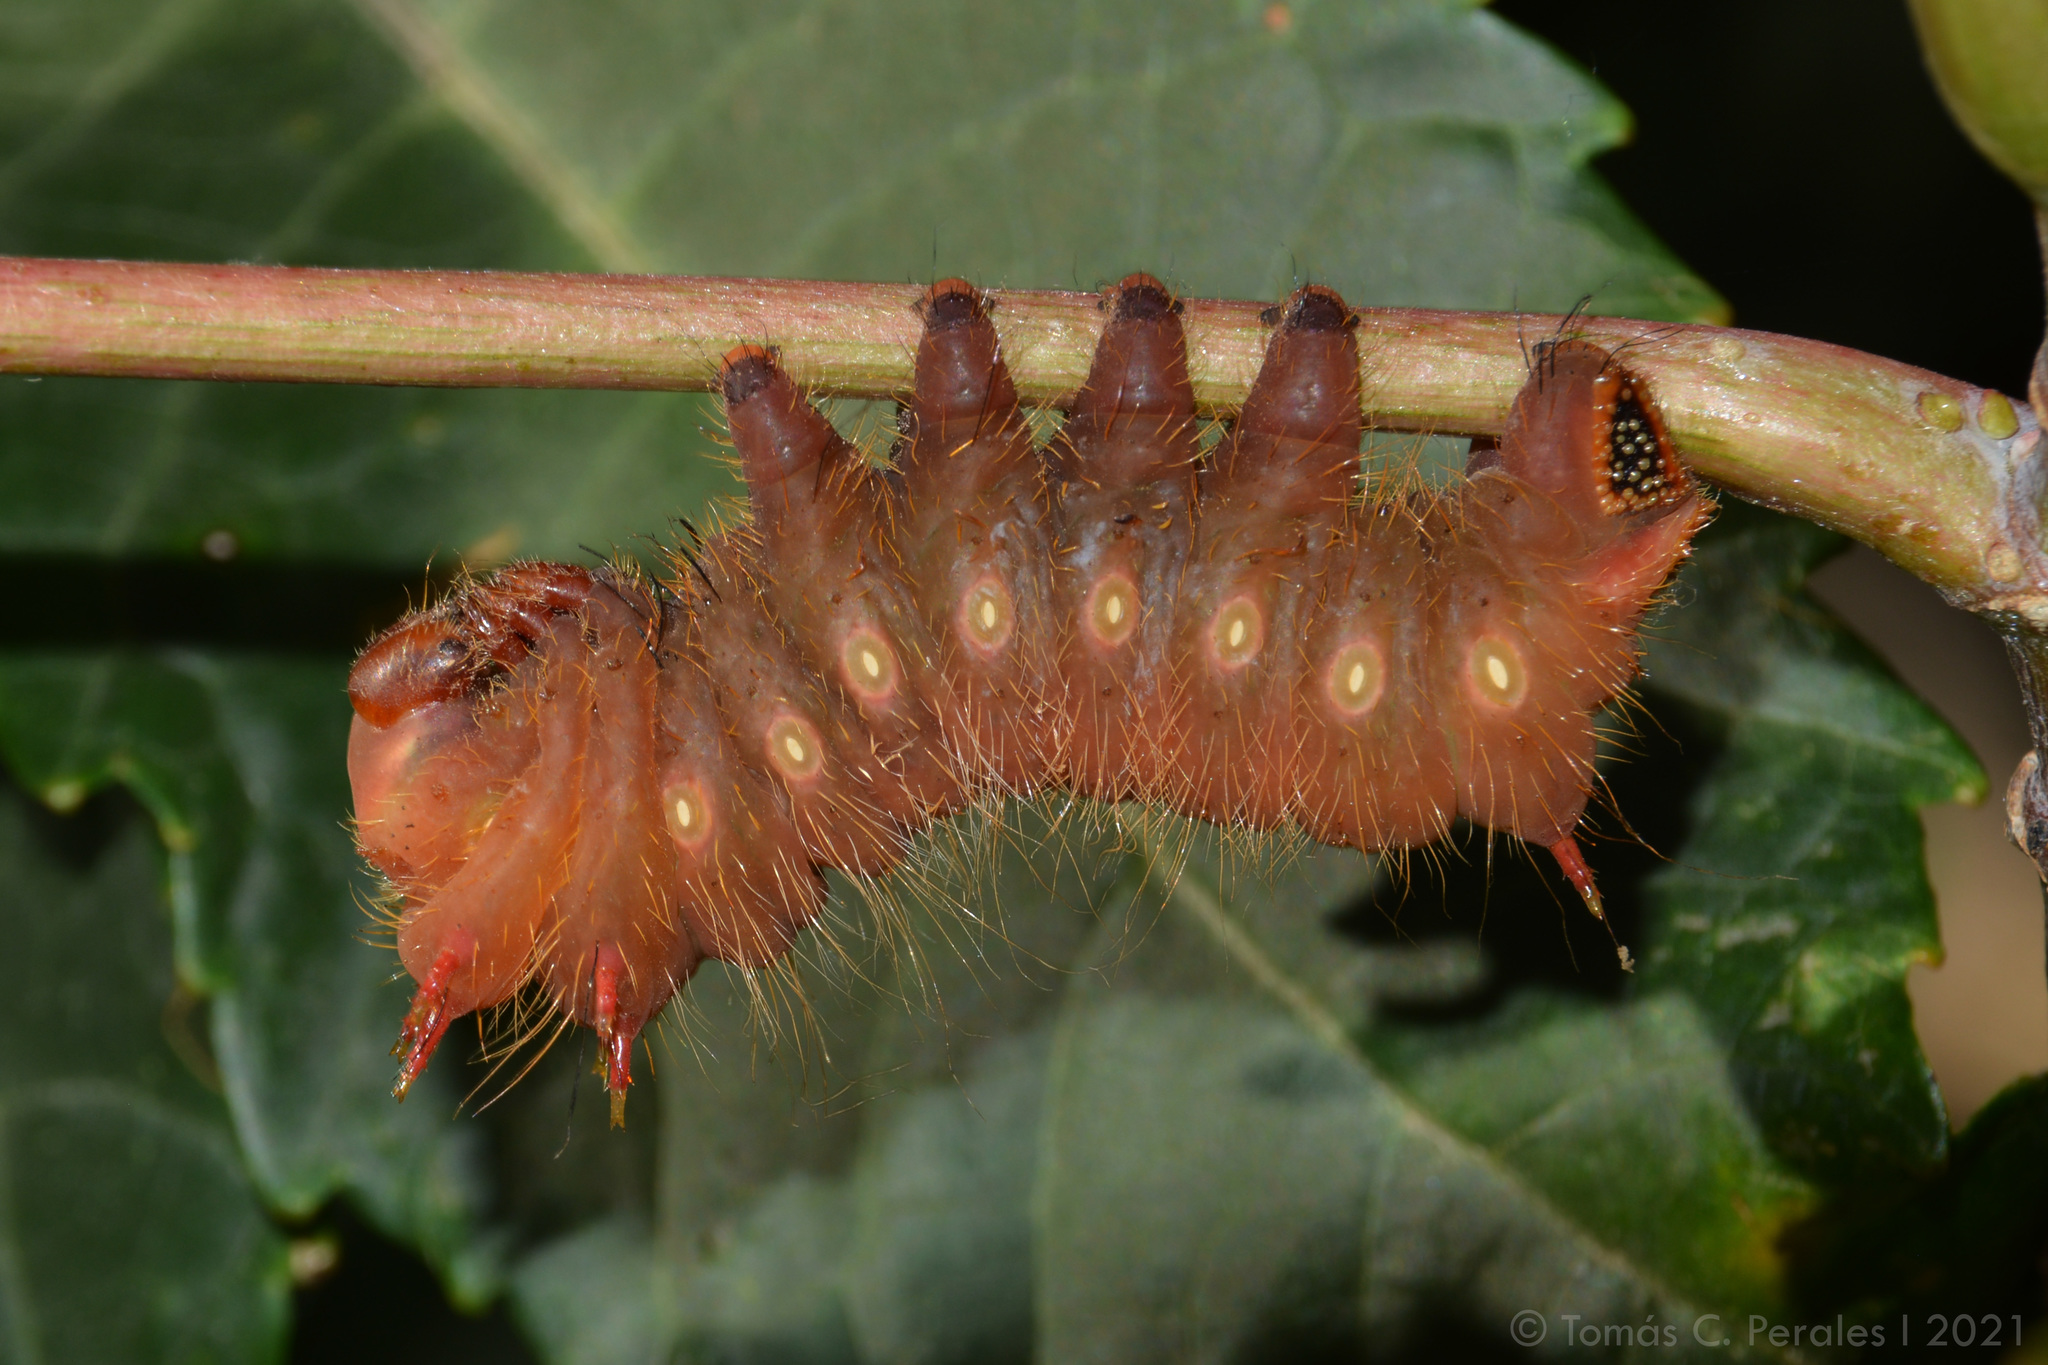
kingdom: Animalia
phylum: Arthropoda
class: Insecta
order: Lepidoptera
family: Saturniidae
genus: Eacles
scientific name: Eacles imperialis
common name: Imperial moth
